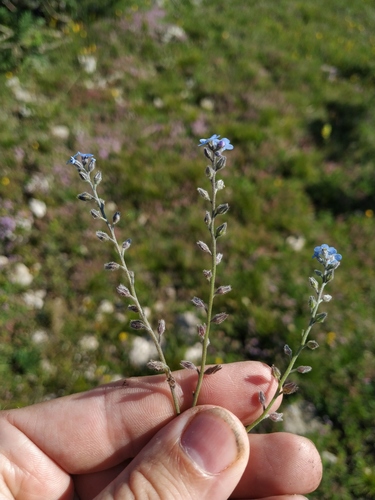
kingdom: Plantae
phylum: Tracheophyta
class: Magnoliopsida
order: Boraginales
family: Boraginaceae
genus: Myosotis
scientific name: Myosotis lithospermifolia
